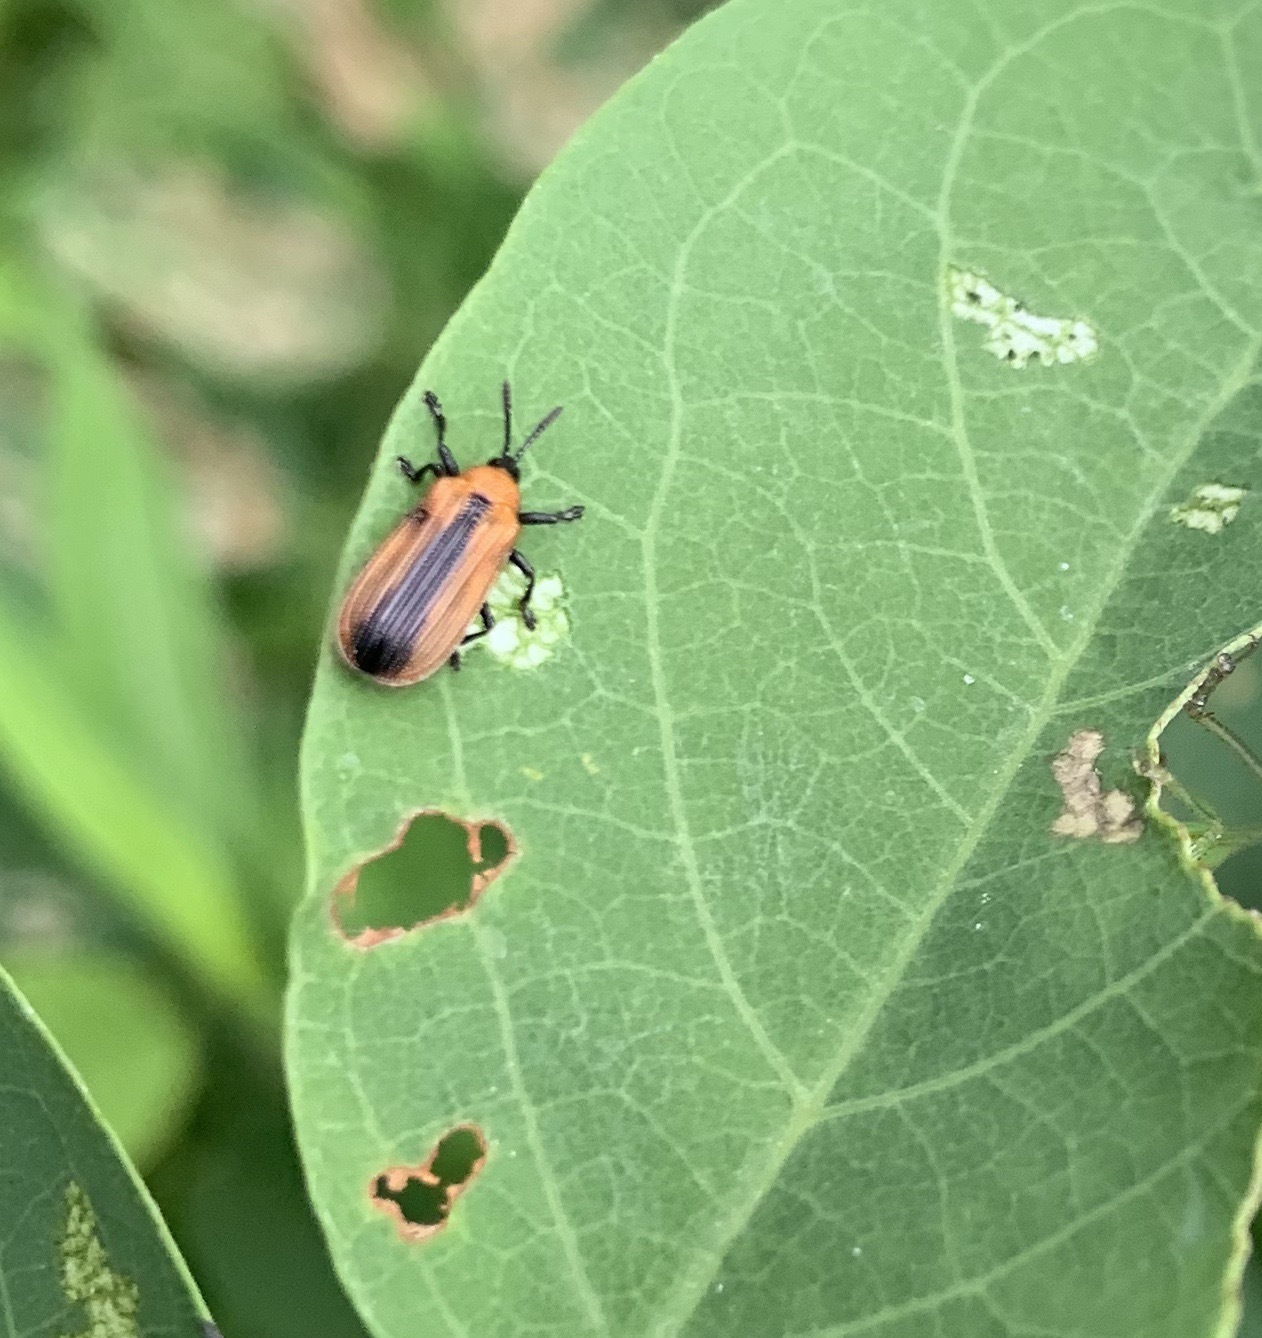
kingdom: Animalia
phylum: Arthropoda
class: Insecta
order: Coleoptera
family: Chrysomelidae
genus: Odontota
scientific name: Odontota dorsalis
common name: Locust leaf-miner beetle
